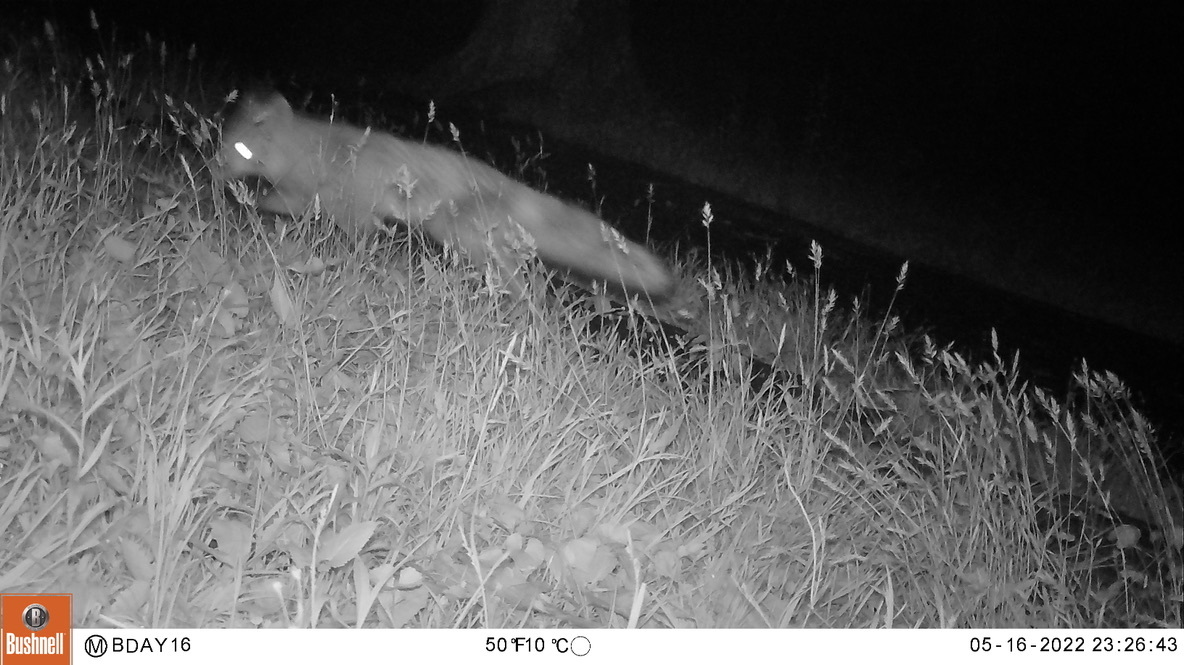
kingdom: Animalia
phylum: Chordata
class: Mammalia
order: Carnivora
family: Canidae
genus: Vulpes
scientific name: Vulpes vulpes
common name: Red fox
